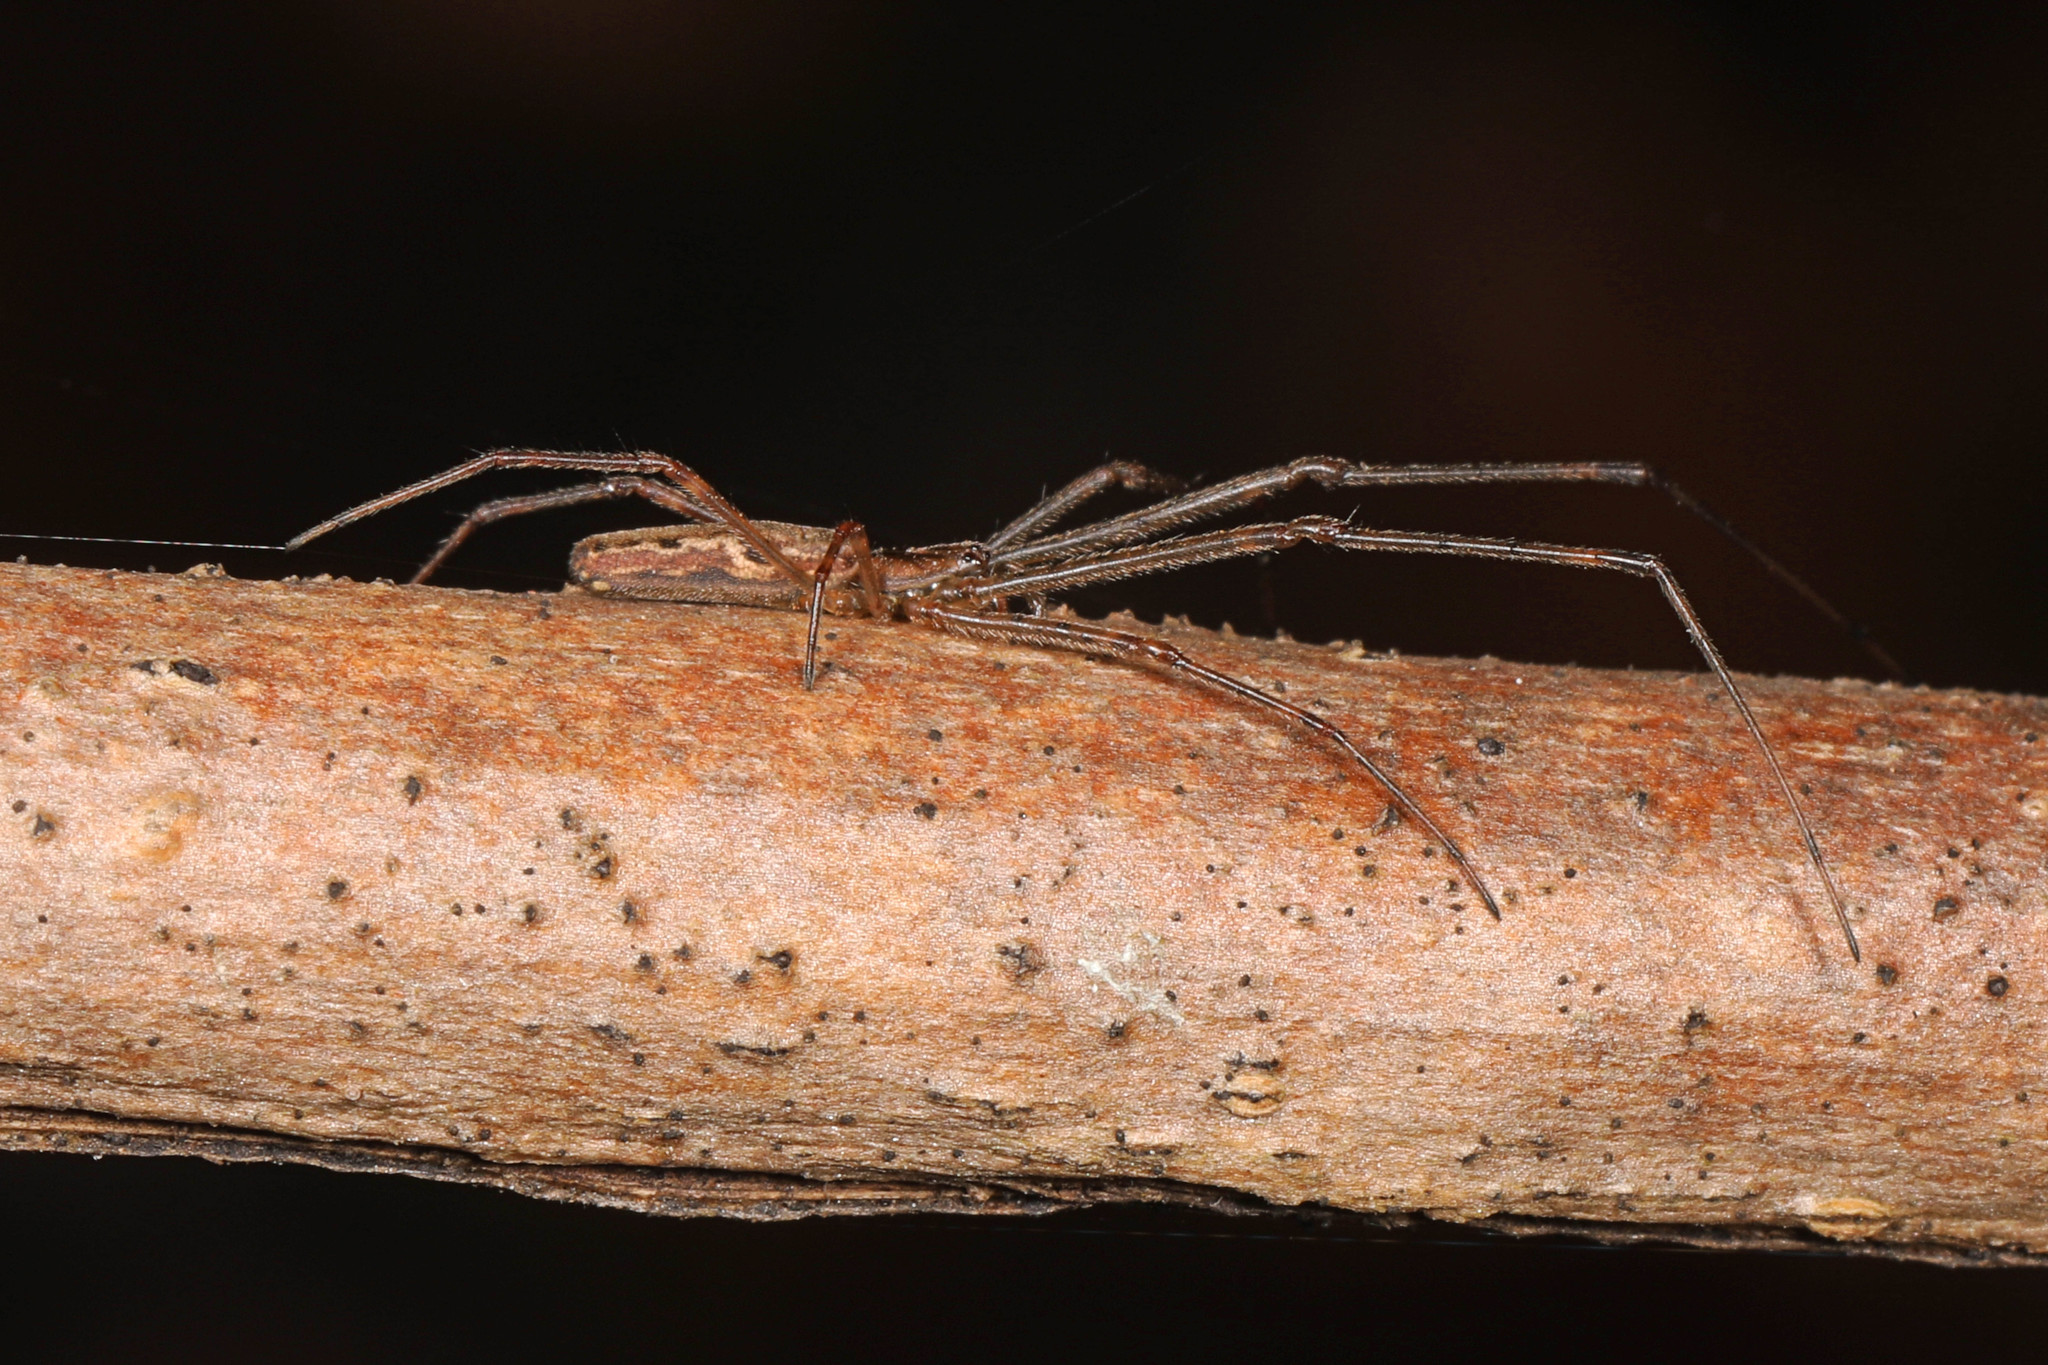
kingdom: Animalia
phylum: Arthropoda
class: Arachnida
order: Araneae
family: Tetragnathidae
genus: Tetragnatha
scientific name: Tetragnatha
